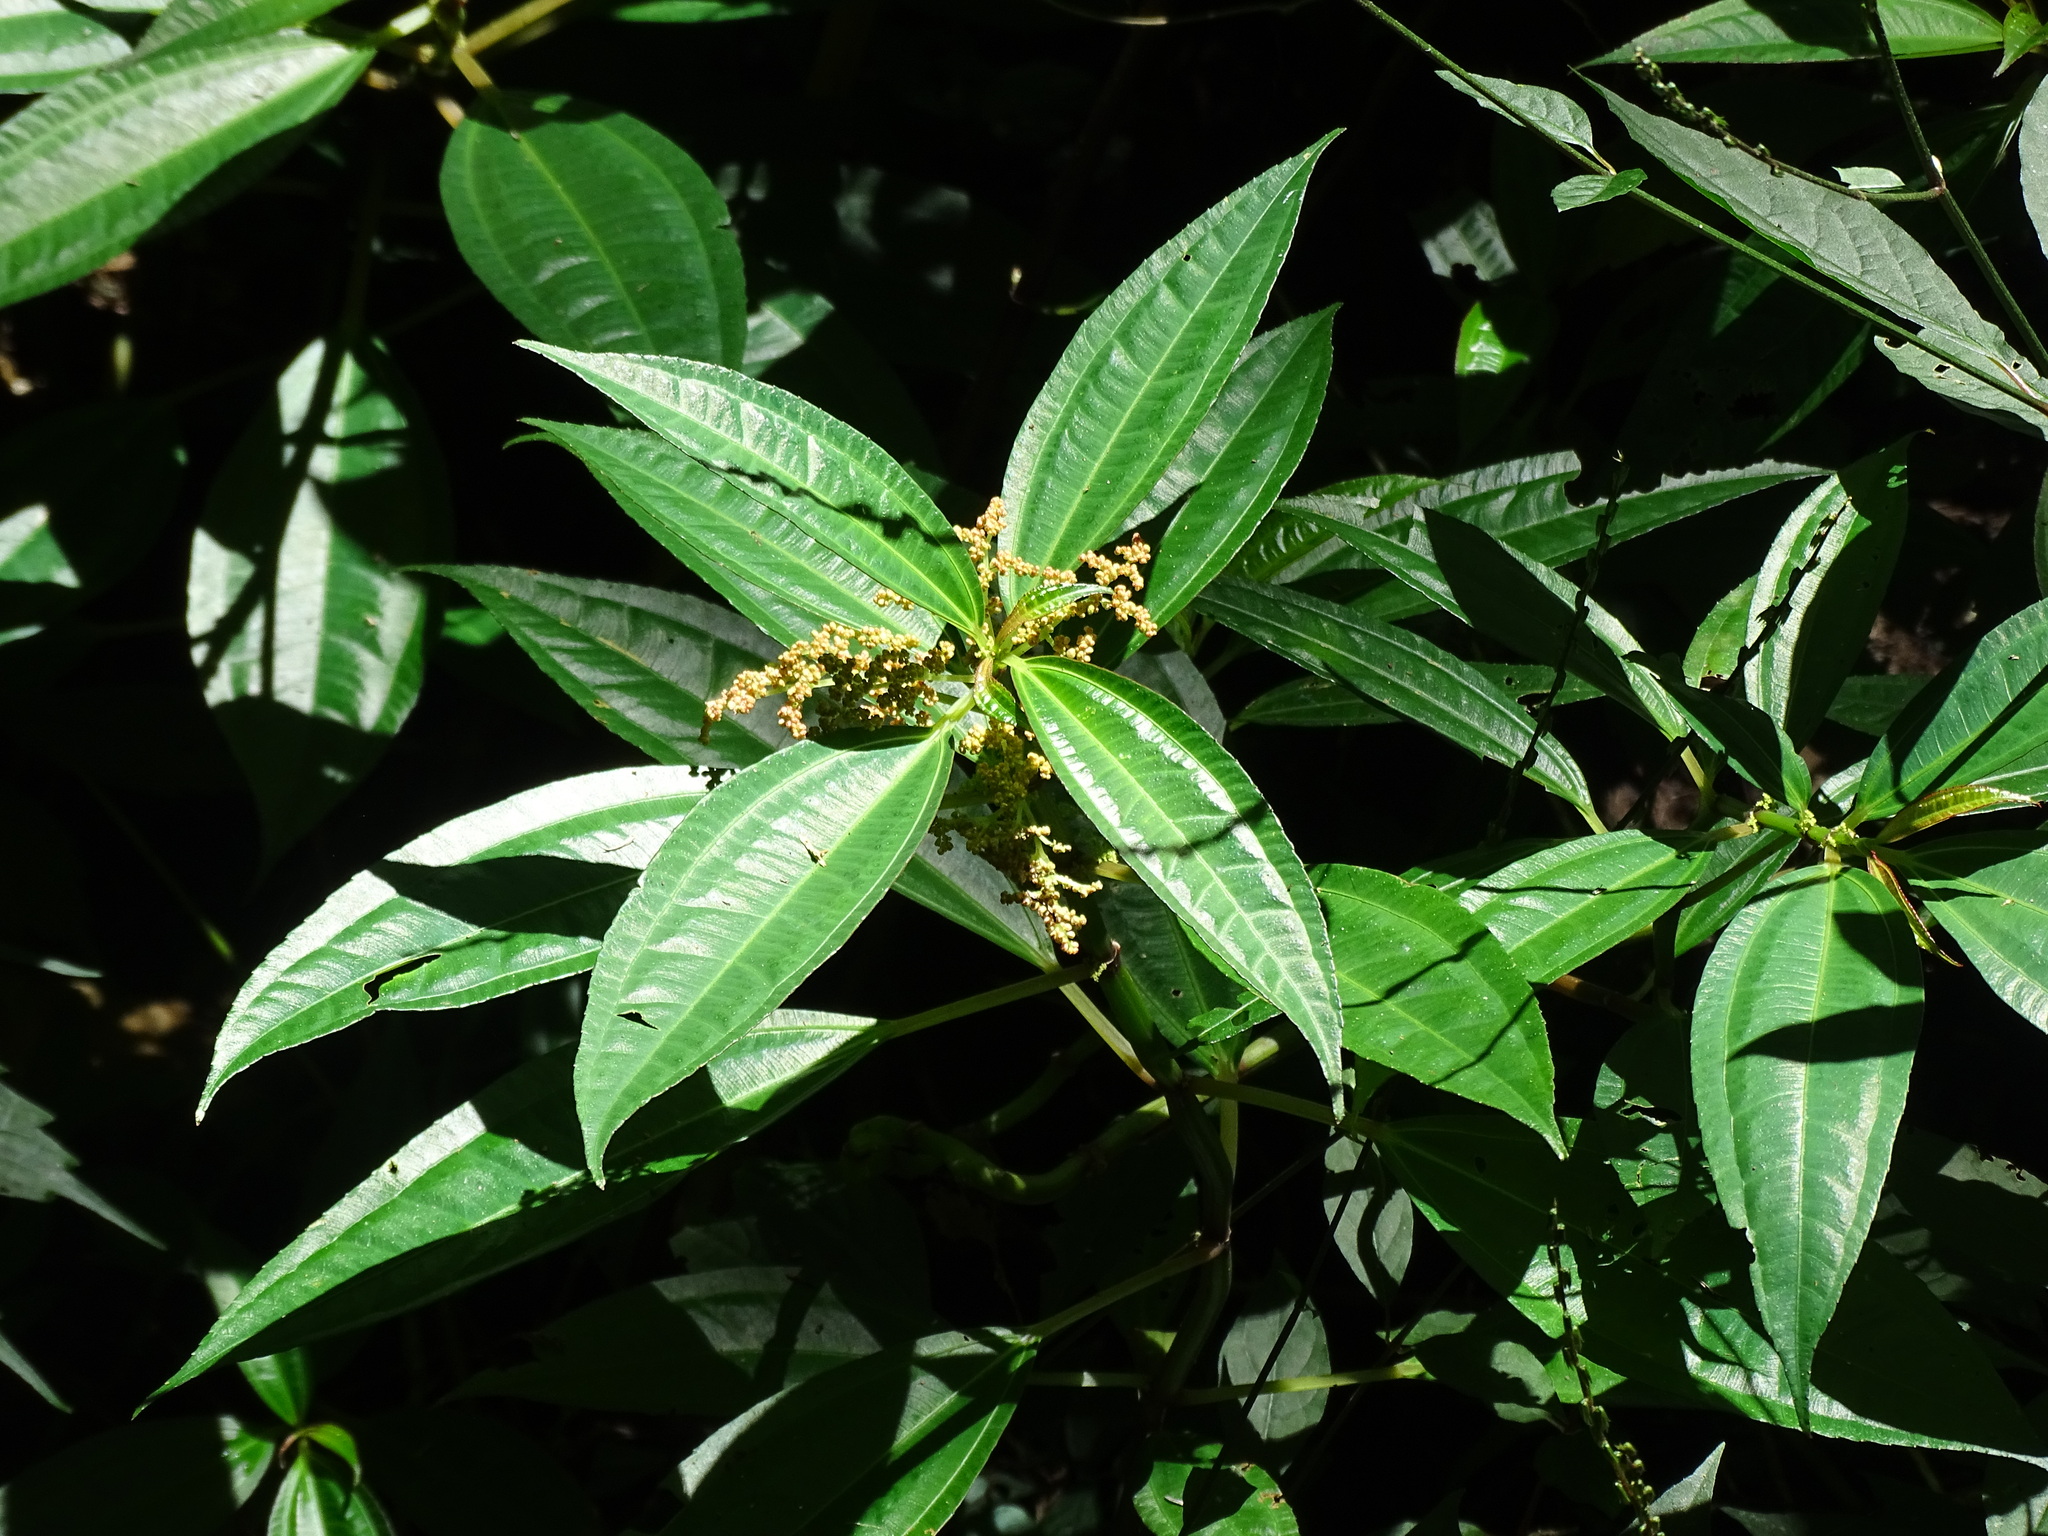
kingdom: Plantae
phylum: Tracheophyta
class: Magnoliopsida
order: Rosales
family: Urticaceae
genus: Pilea
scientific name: Pilea rotundinucula
